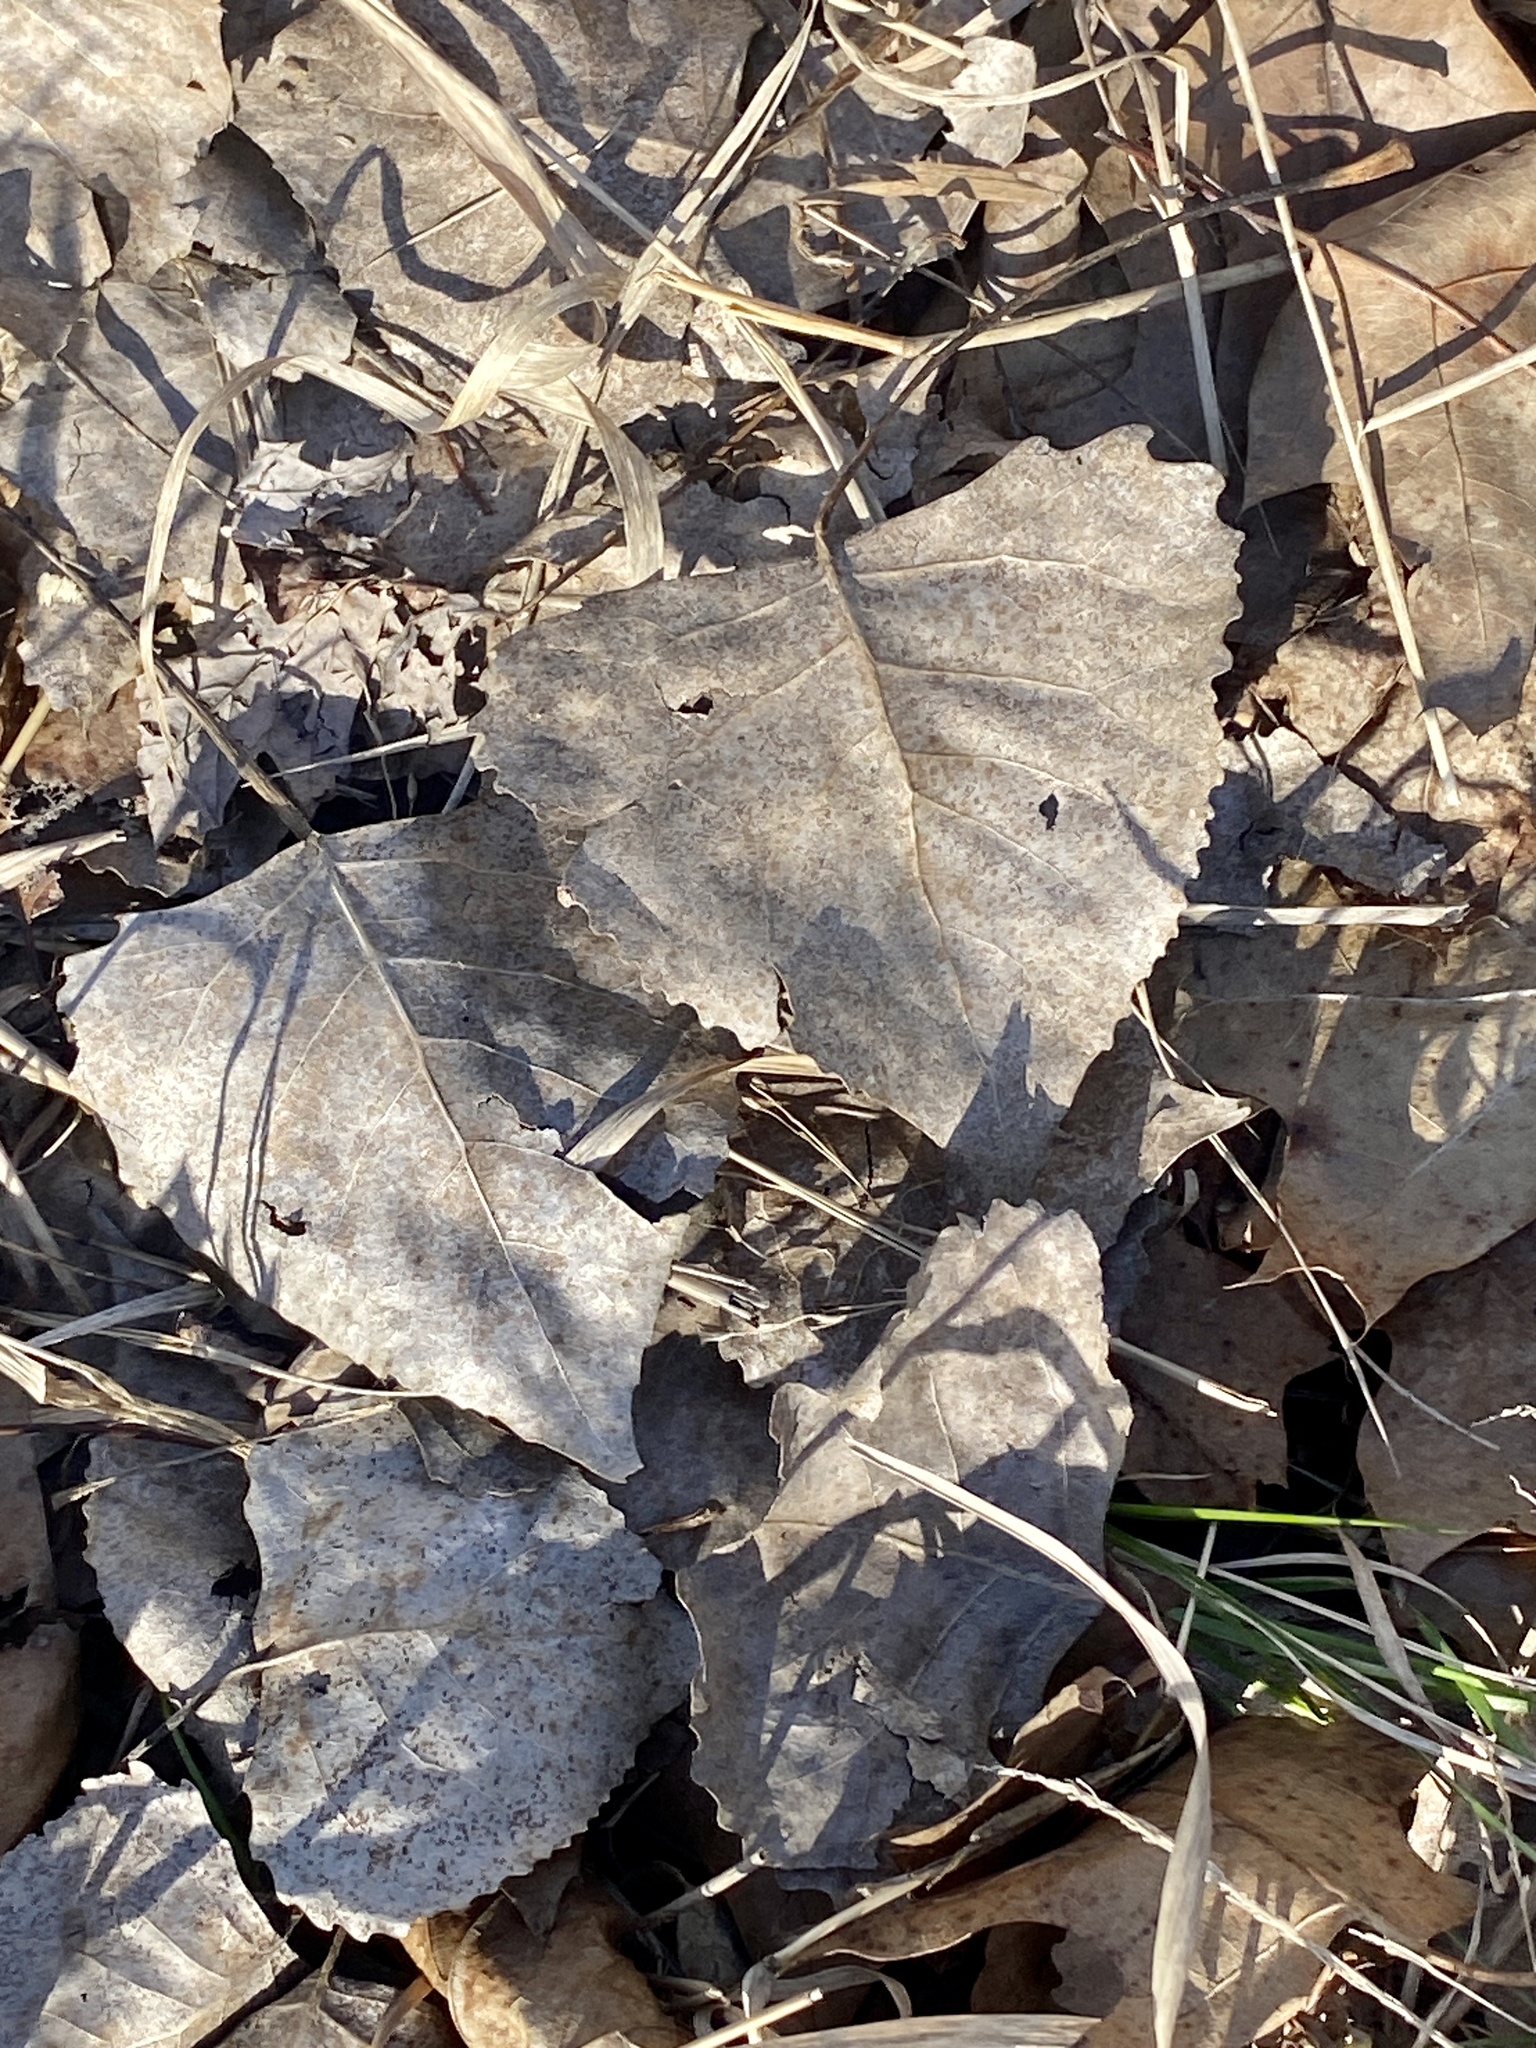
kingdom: Plantae
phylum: Tracheophyta
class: Magnoliopsida
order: Malpighiales
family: Salicaceae
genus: Populus
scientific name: Populus deltoides
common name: Eastern cottonwood
